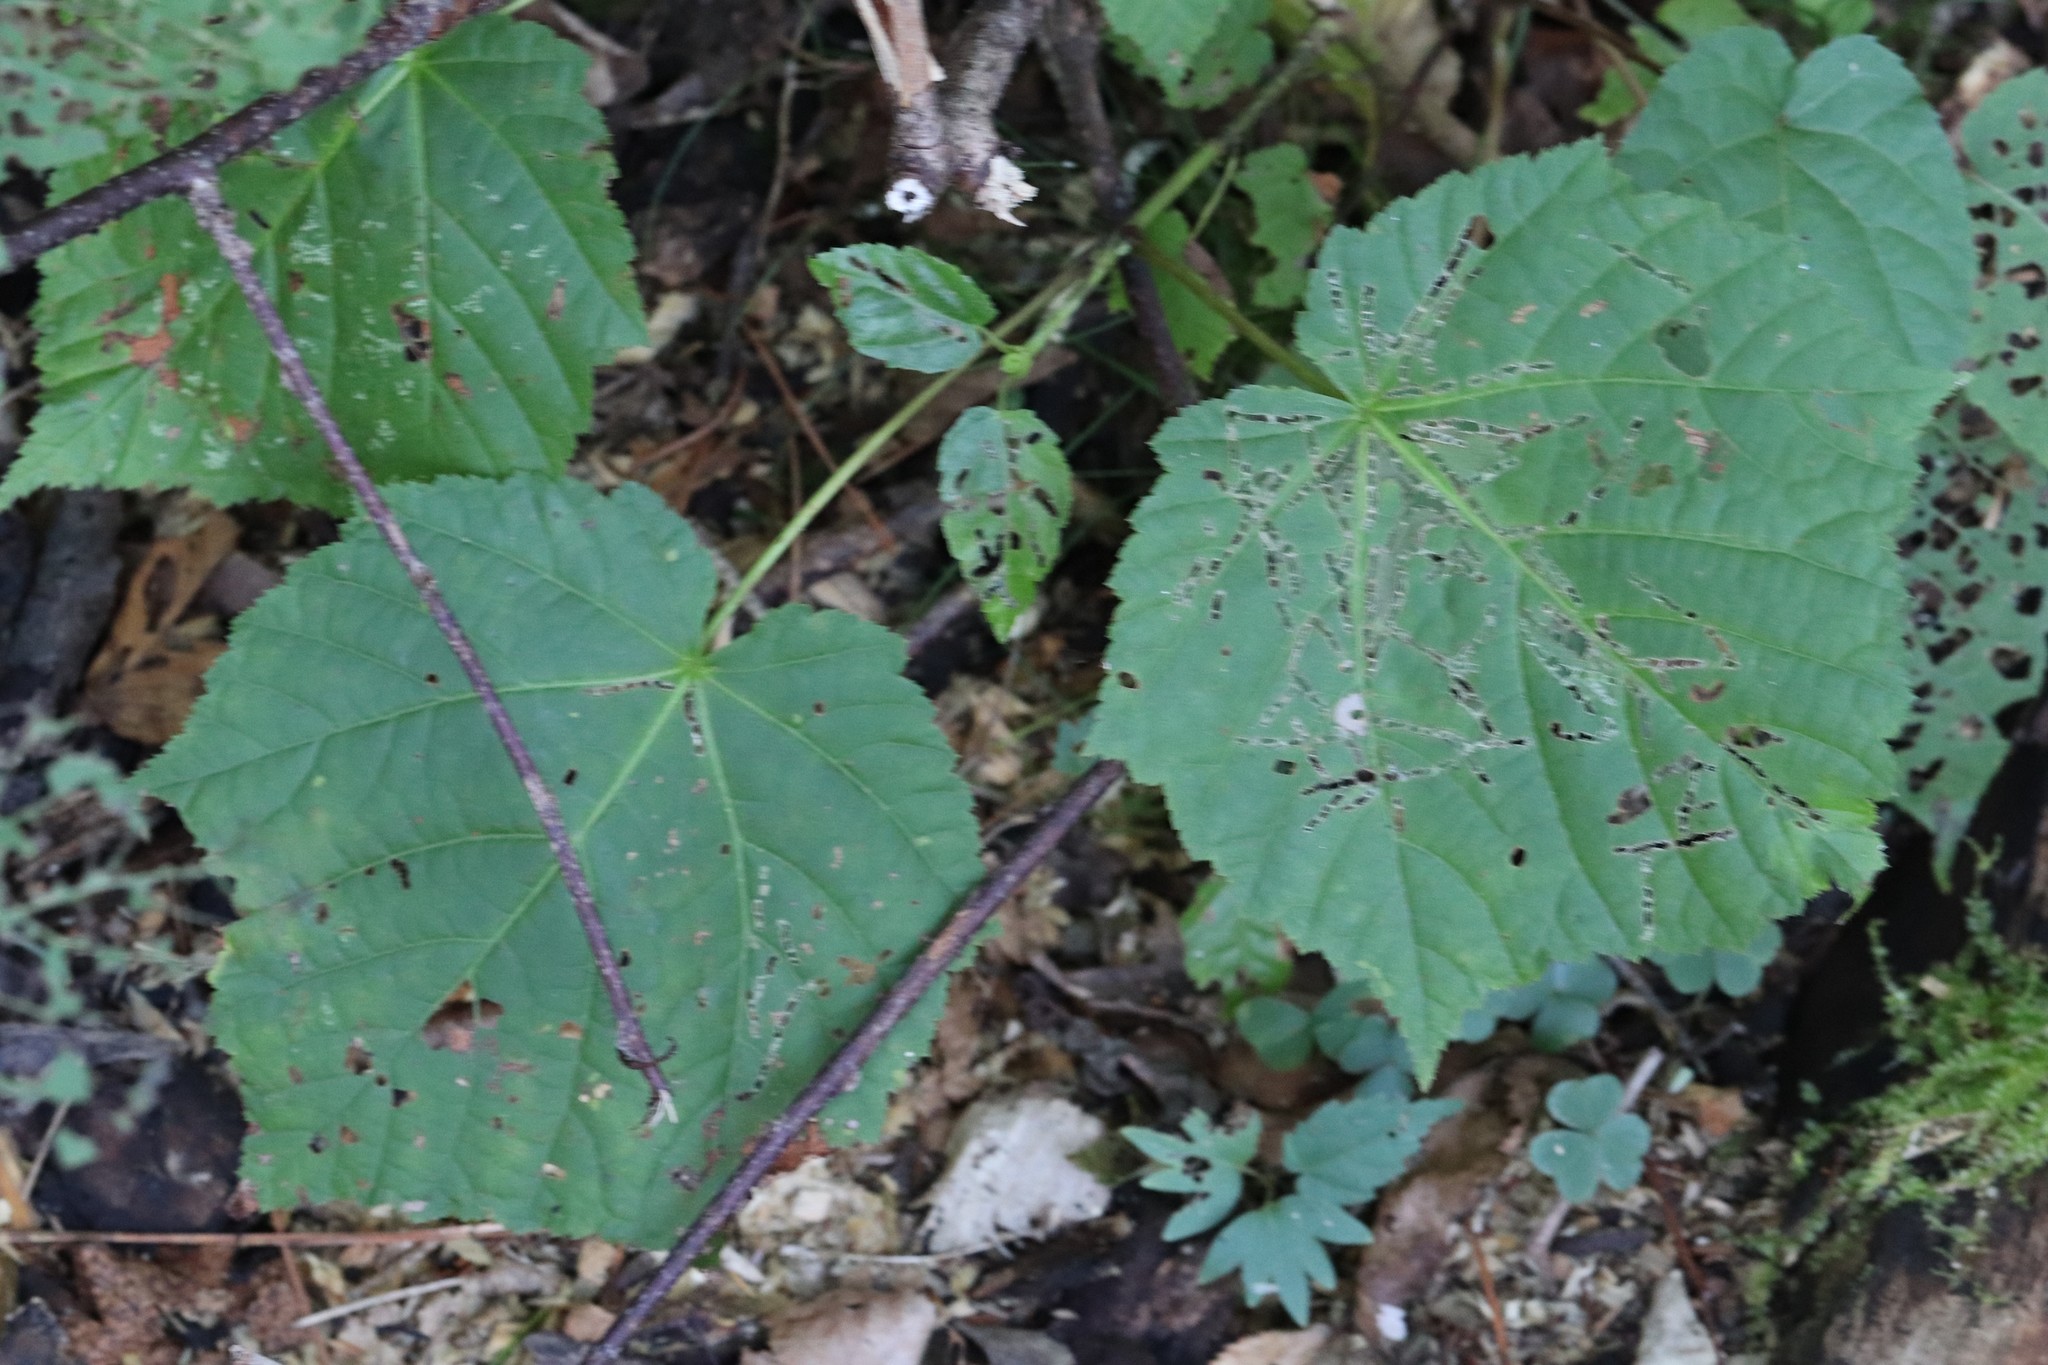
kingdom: Plantae
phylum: Tracheophyta
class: Magnoliopsida
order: Sapindales
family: Sapindaceae
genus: Acer
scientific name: Acer tegmentosum
